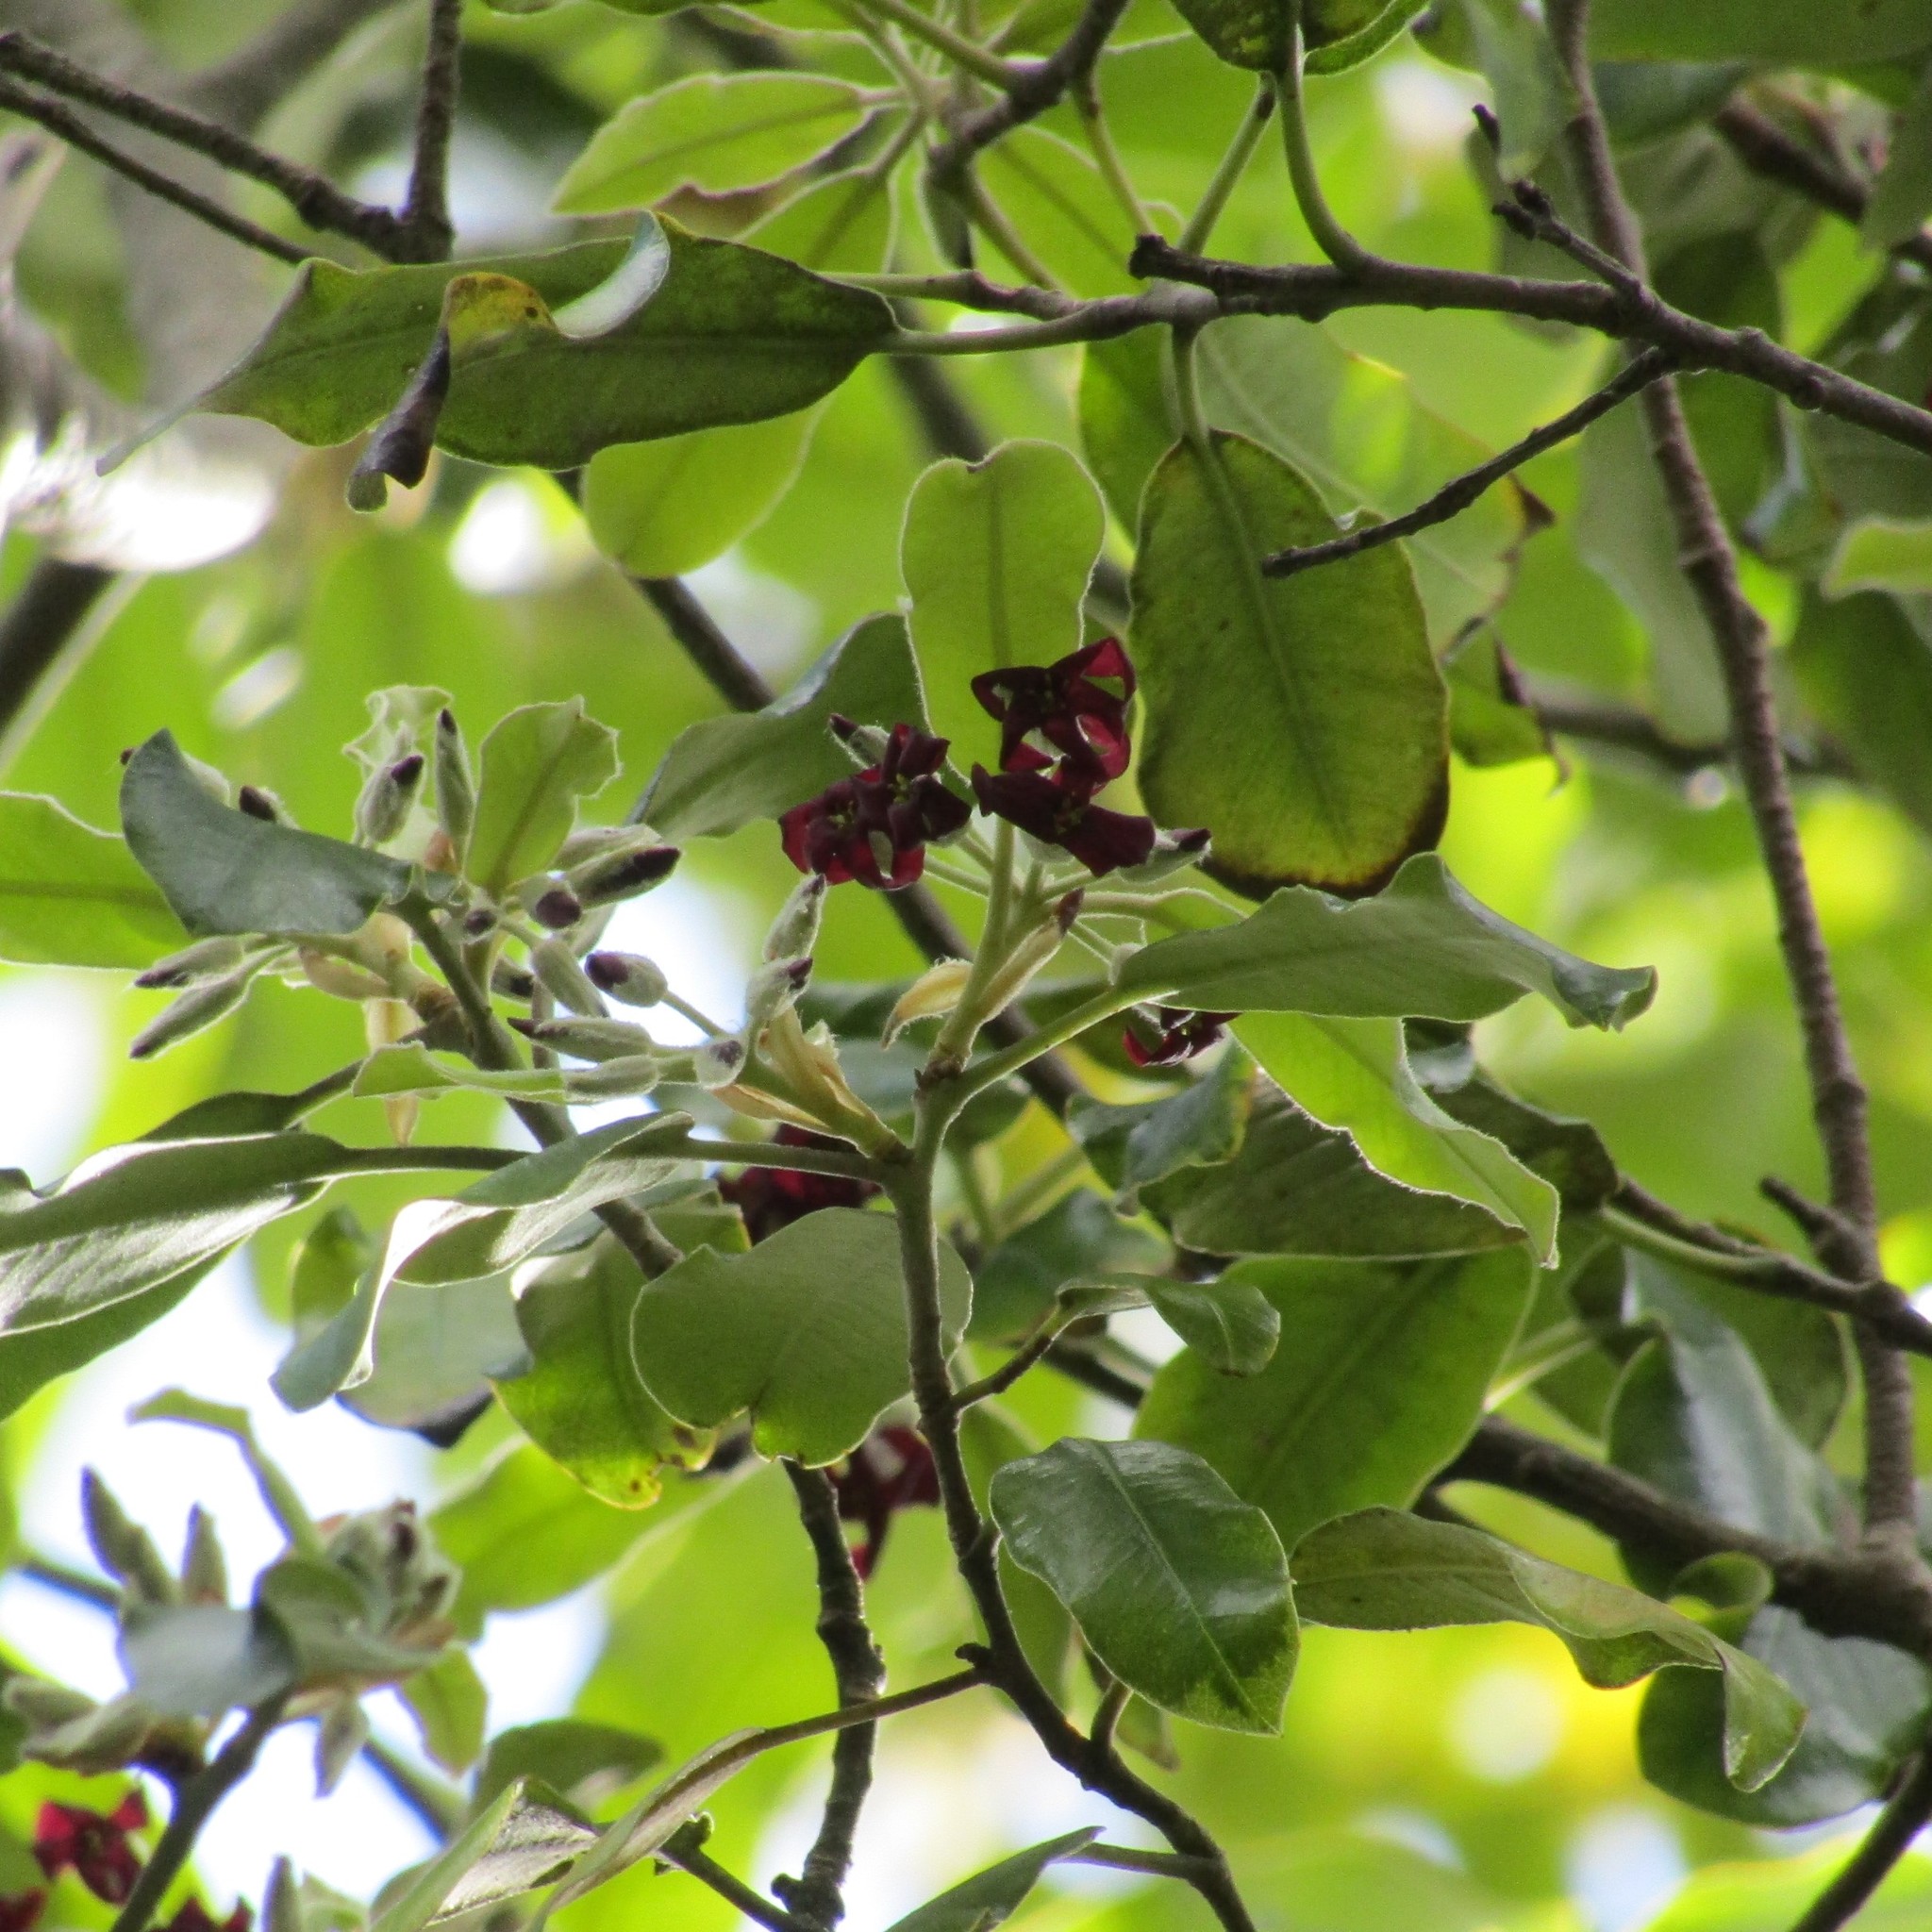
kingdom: Plantae
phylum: Tracheophyta
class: Magnoliopsida
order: Apiales
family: Pittosporaceae
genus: Pittosporum
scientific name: Pittosporum ralphii
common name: Ralph's desertwillow
